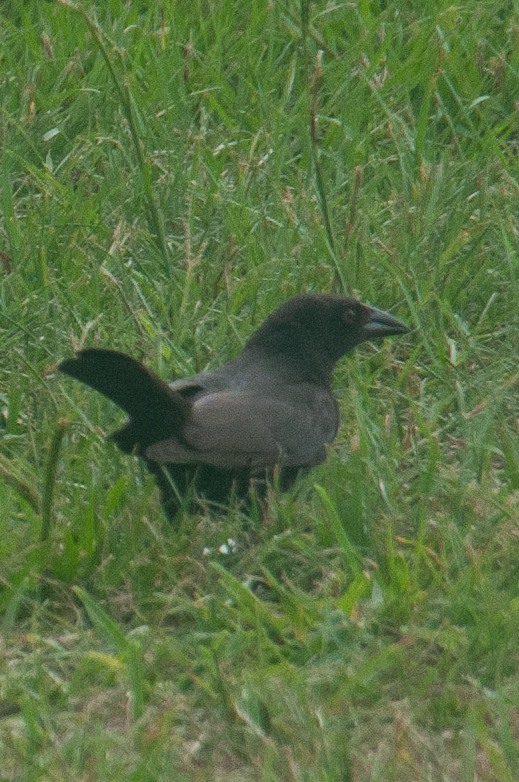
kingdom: Animalia
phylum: Chordata
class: Aves
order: Passeriformes
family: Icteridae
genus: Molothrus
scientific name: Molothrus aeneus
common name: Bronzed cowbird
